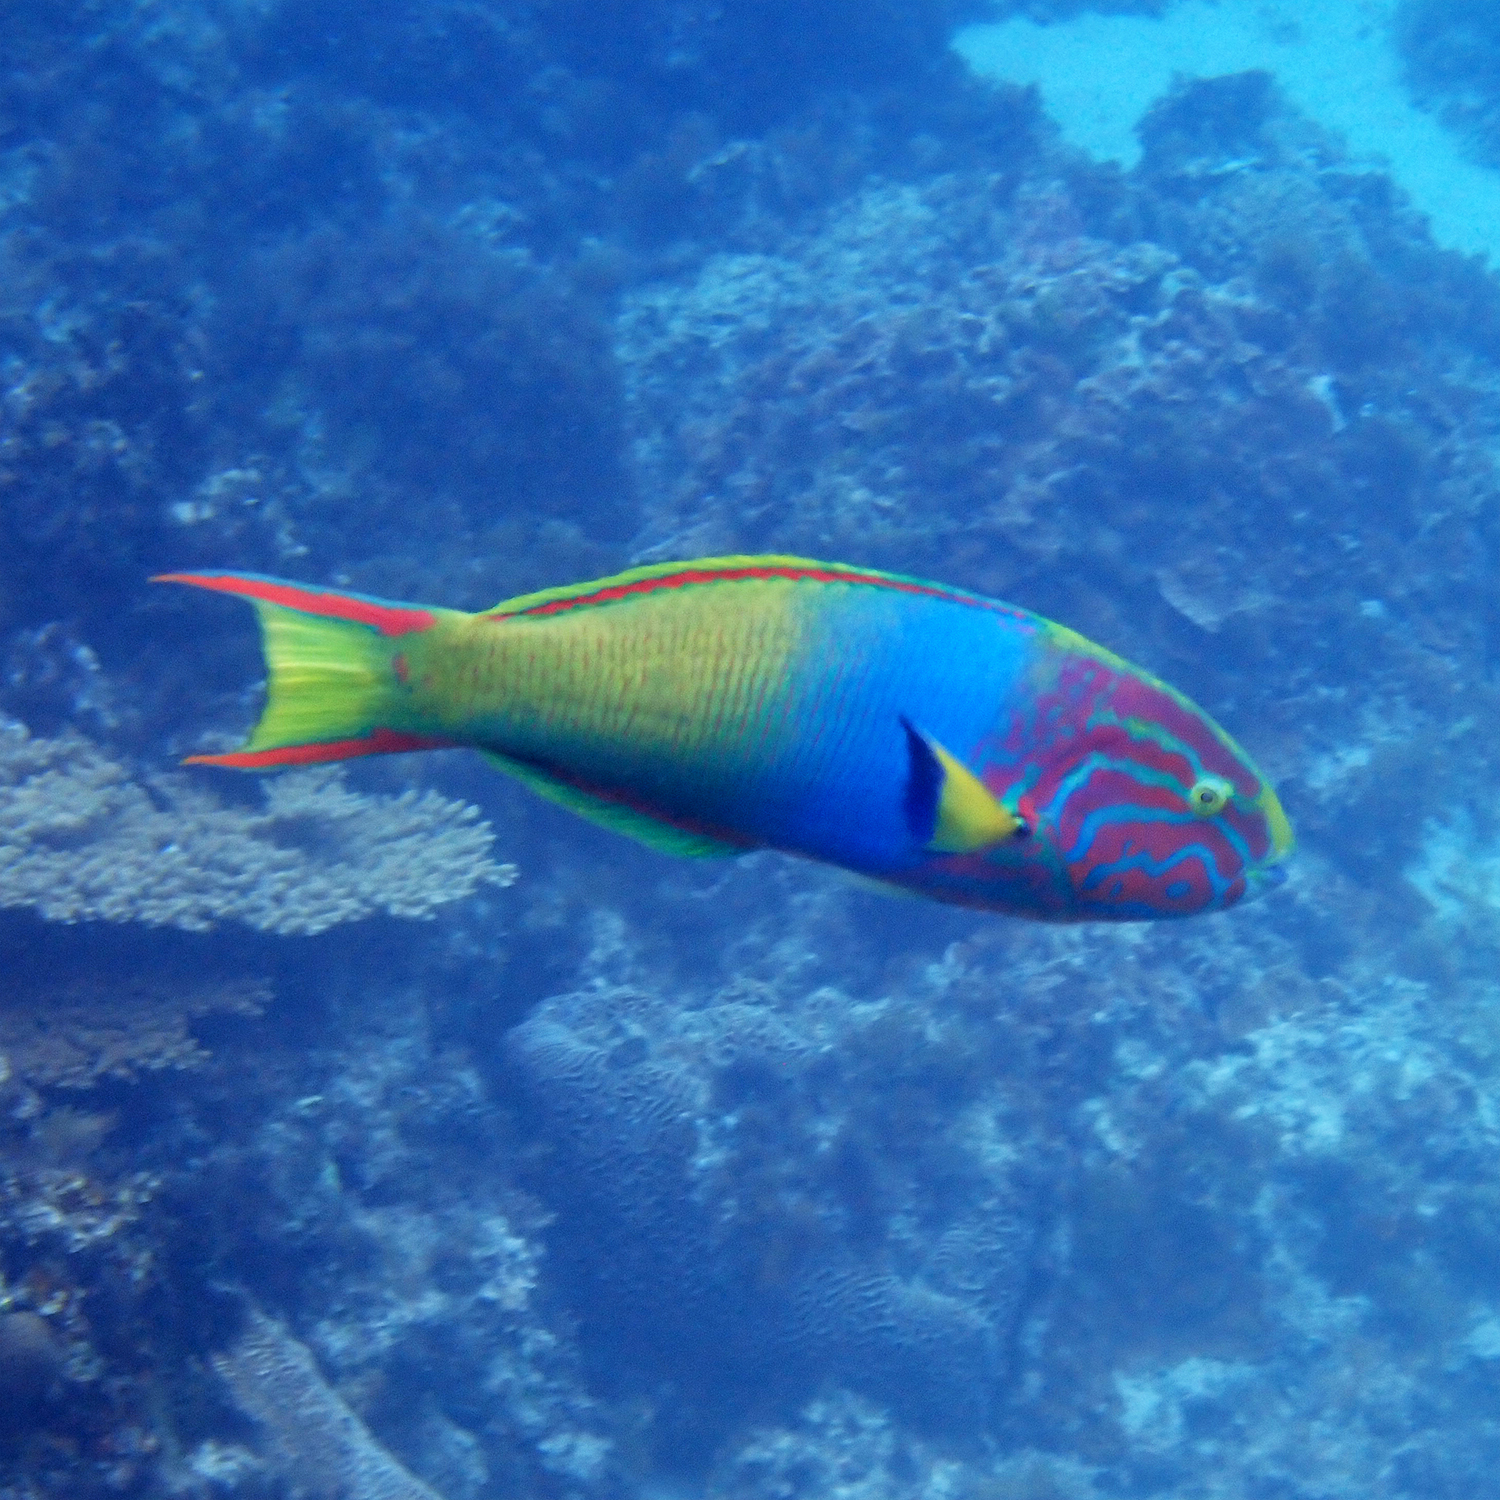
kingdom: Animalia
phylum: Chordata
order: Perciformes
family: Labridae
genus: Thalassoma
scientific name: Thalassoma lutescens
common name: Green moon wrasse
